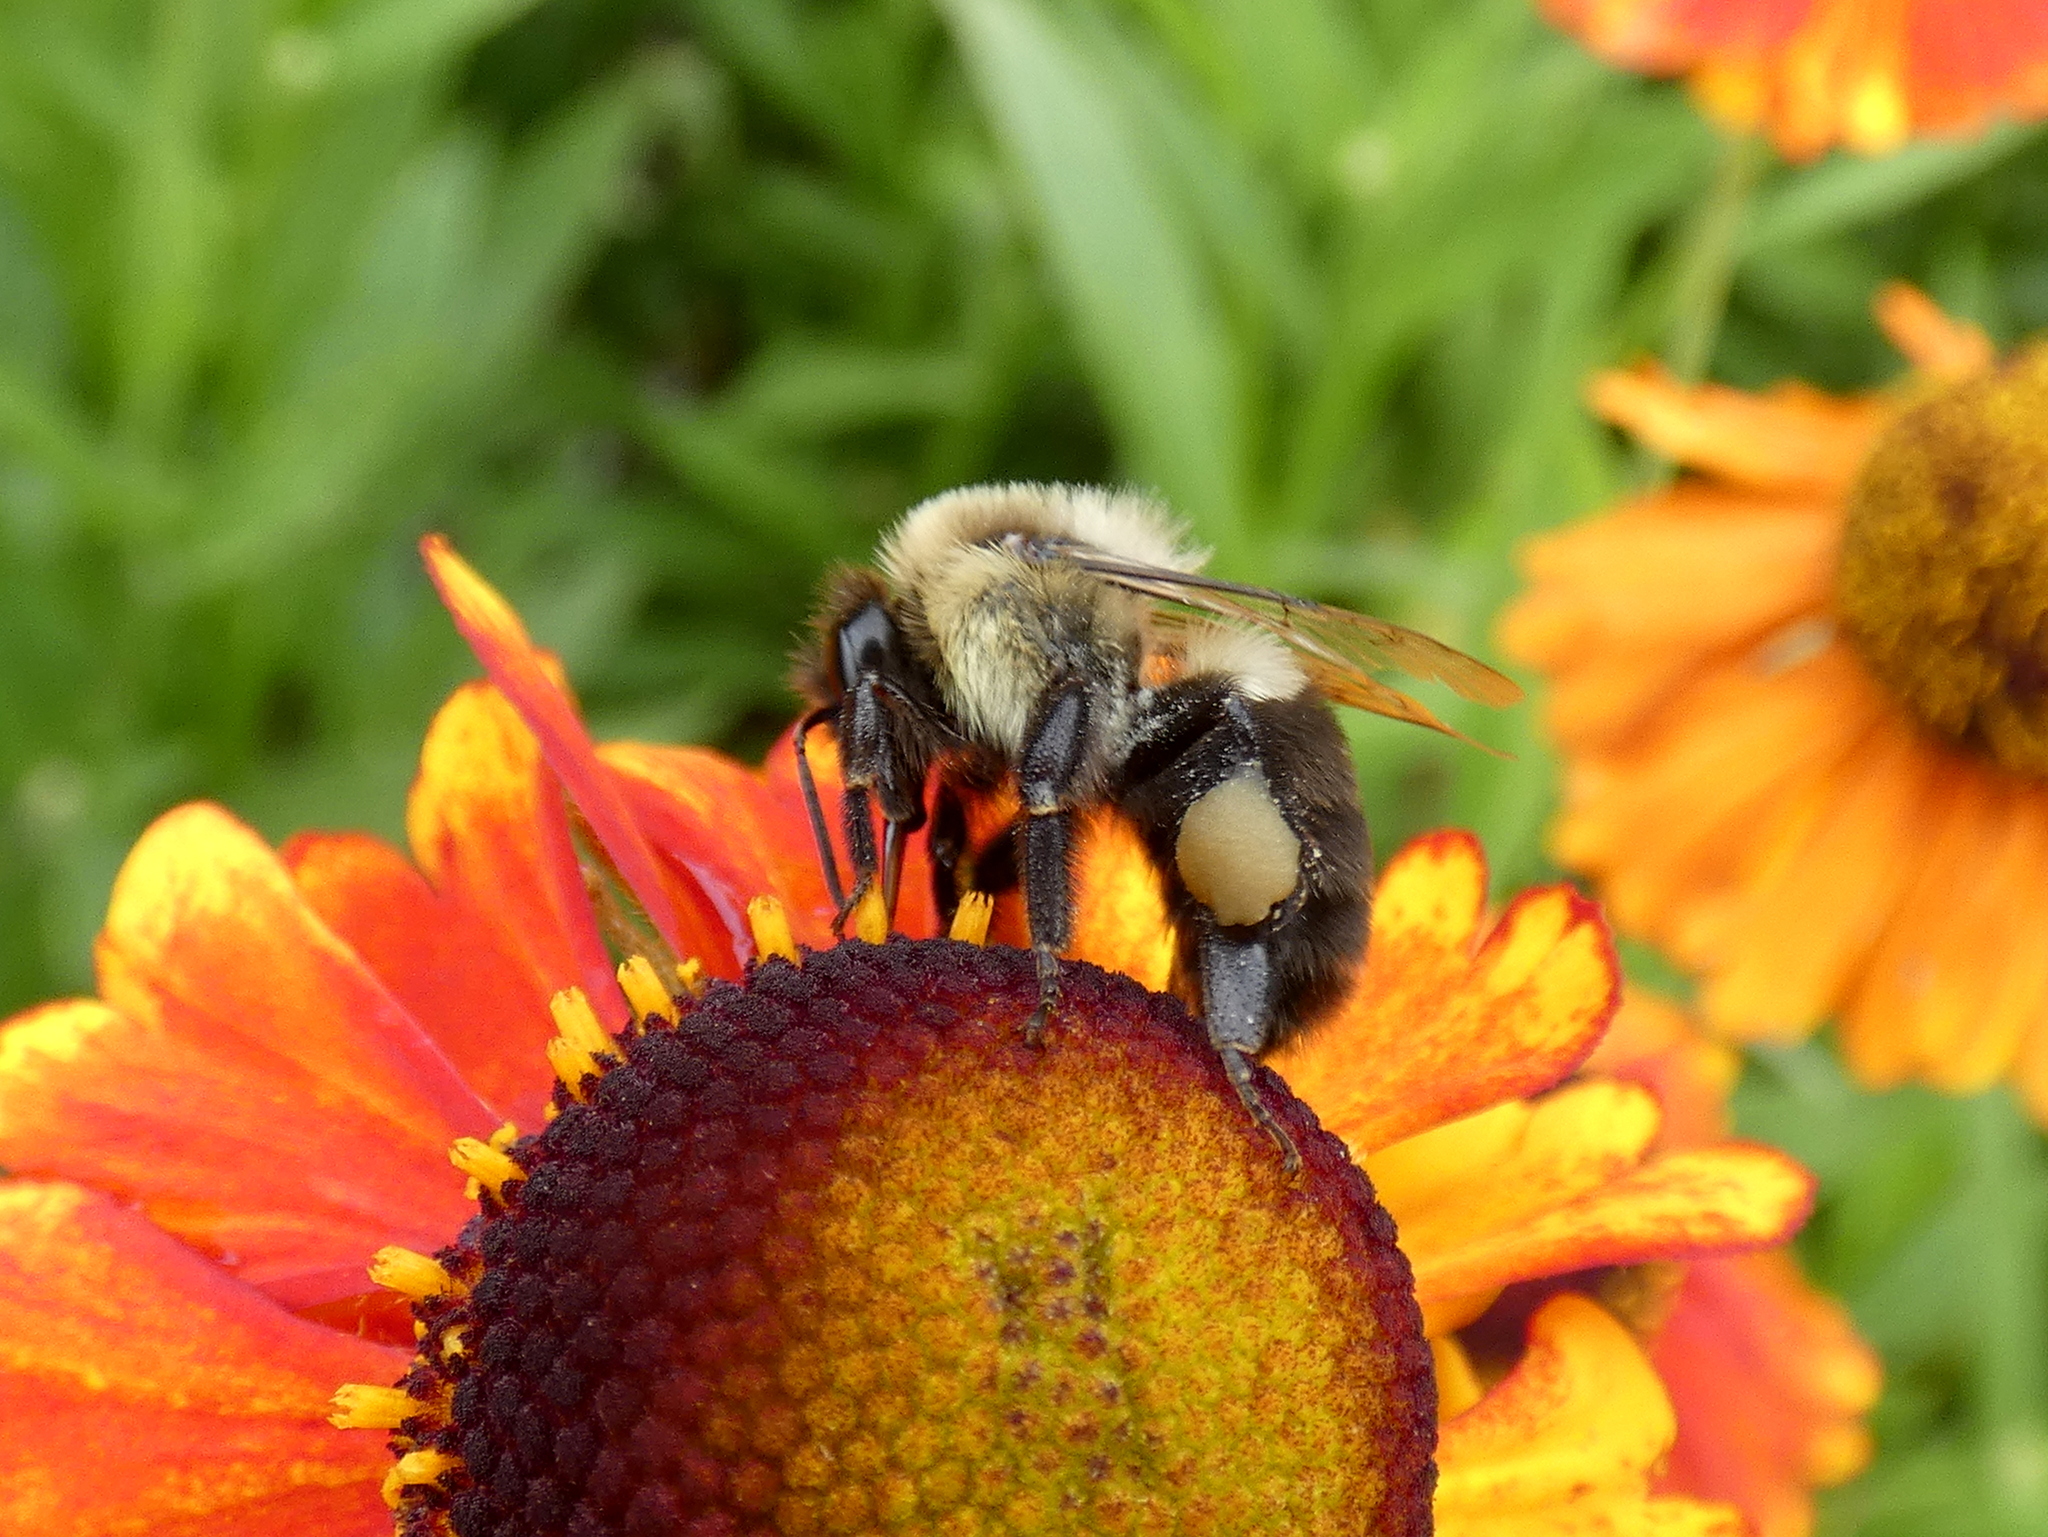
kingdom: Animalia
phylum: Arthropoda
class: Insecta
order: Hymenoptera
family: Apidae
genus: Bombus
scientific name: Bombus impatiens
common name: Common eastern bumble bee
